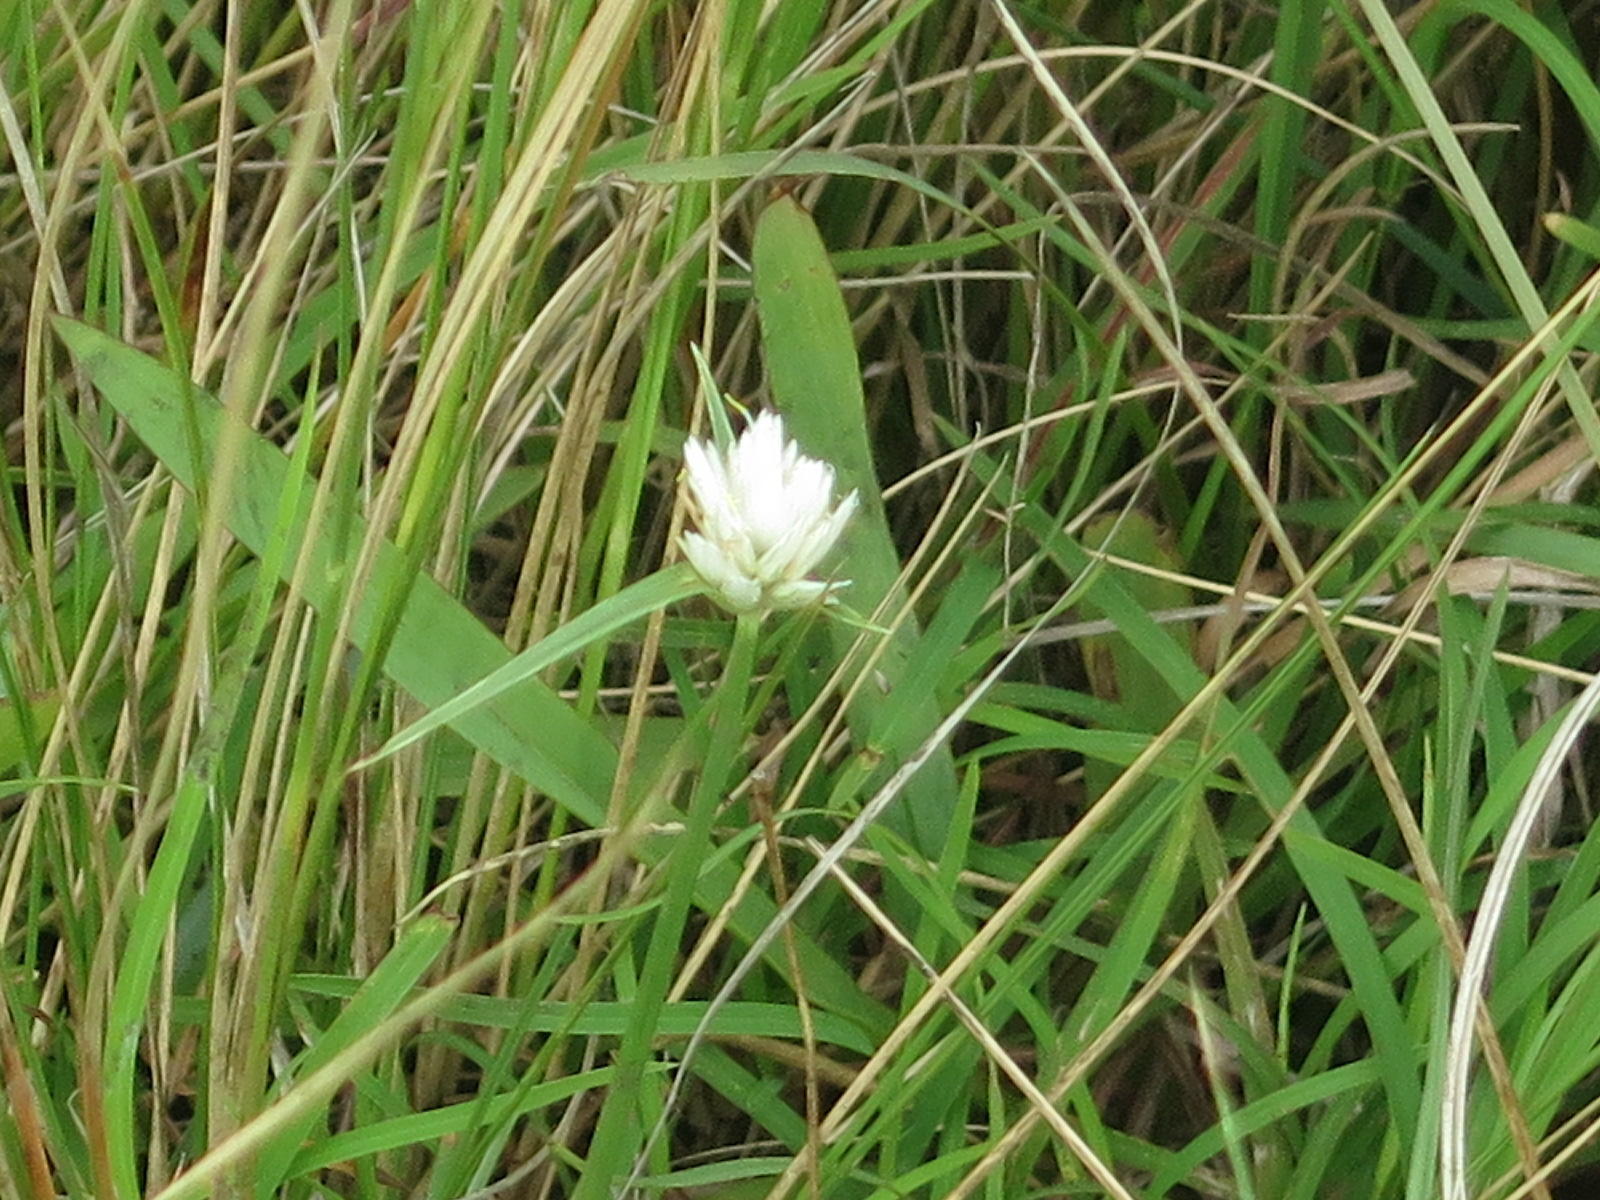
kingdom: Plantae
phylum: Tracheophyta
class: Liliopsida
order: Poales
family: Cyperaceae
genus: Cyperus
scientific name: Cyperus niveus
